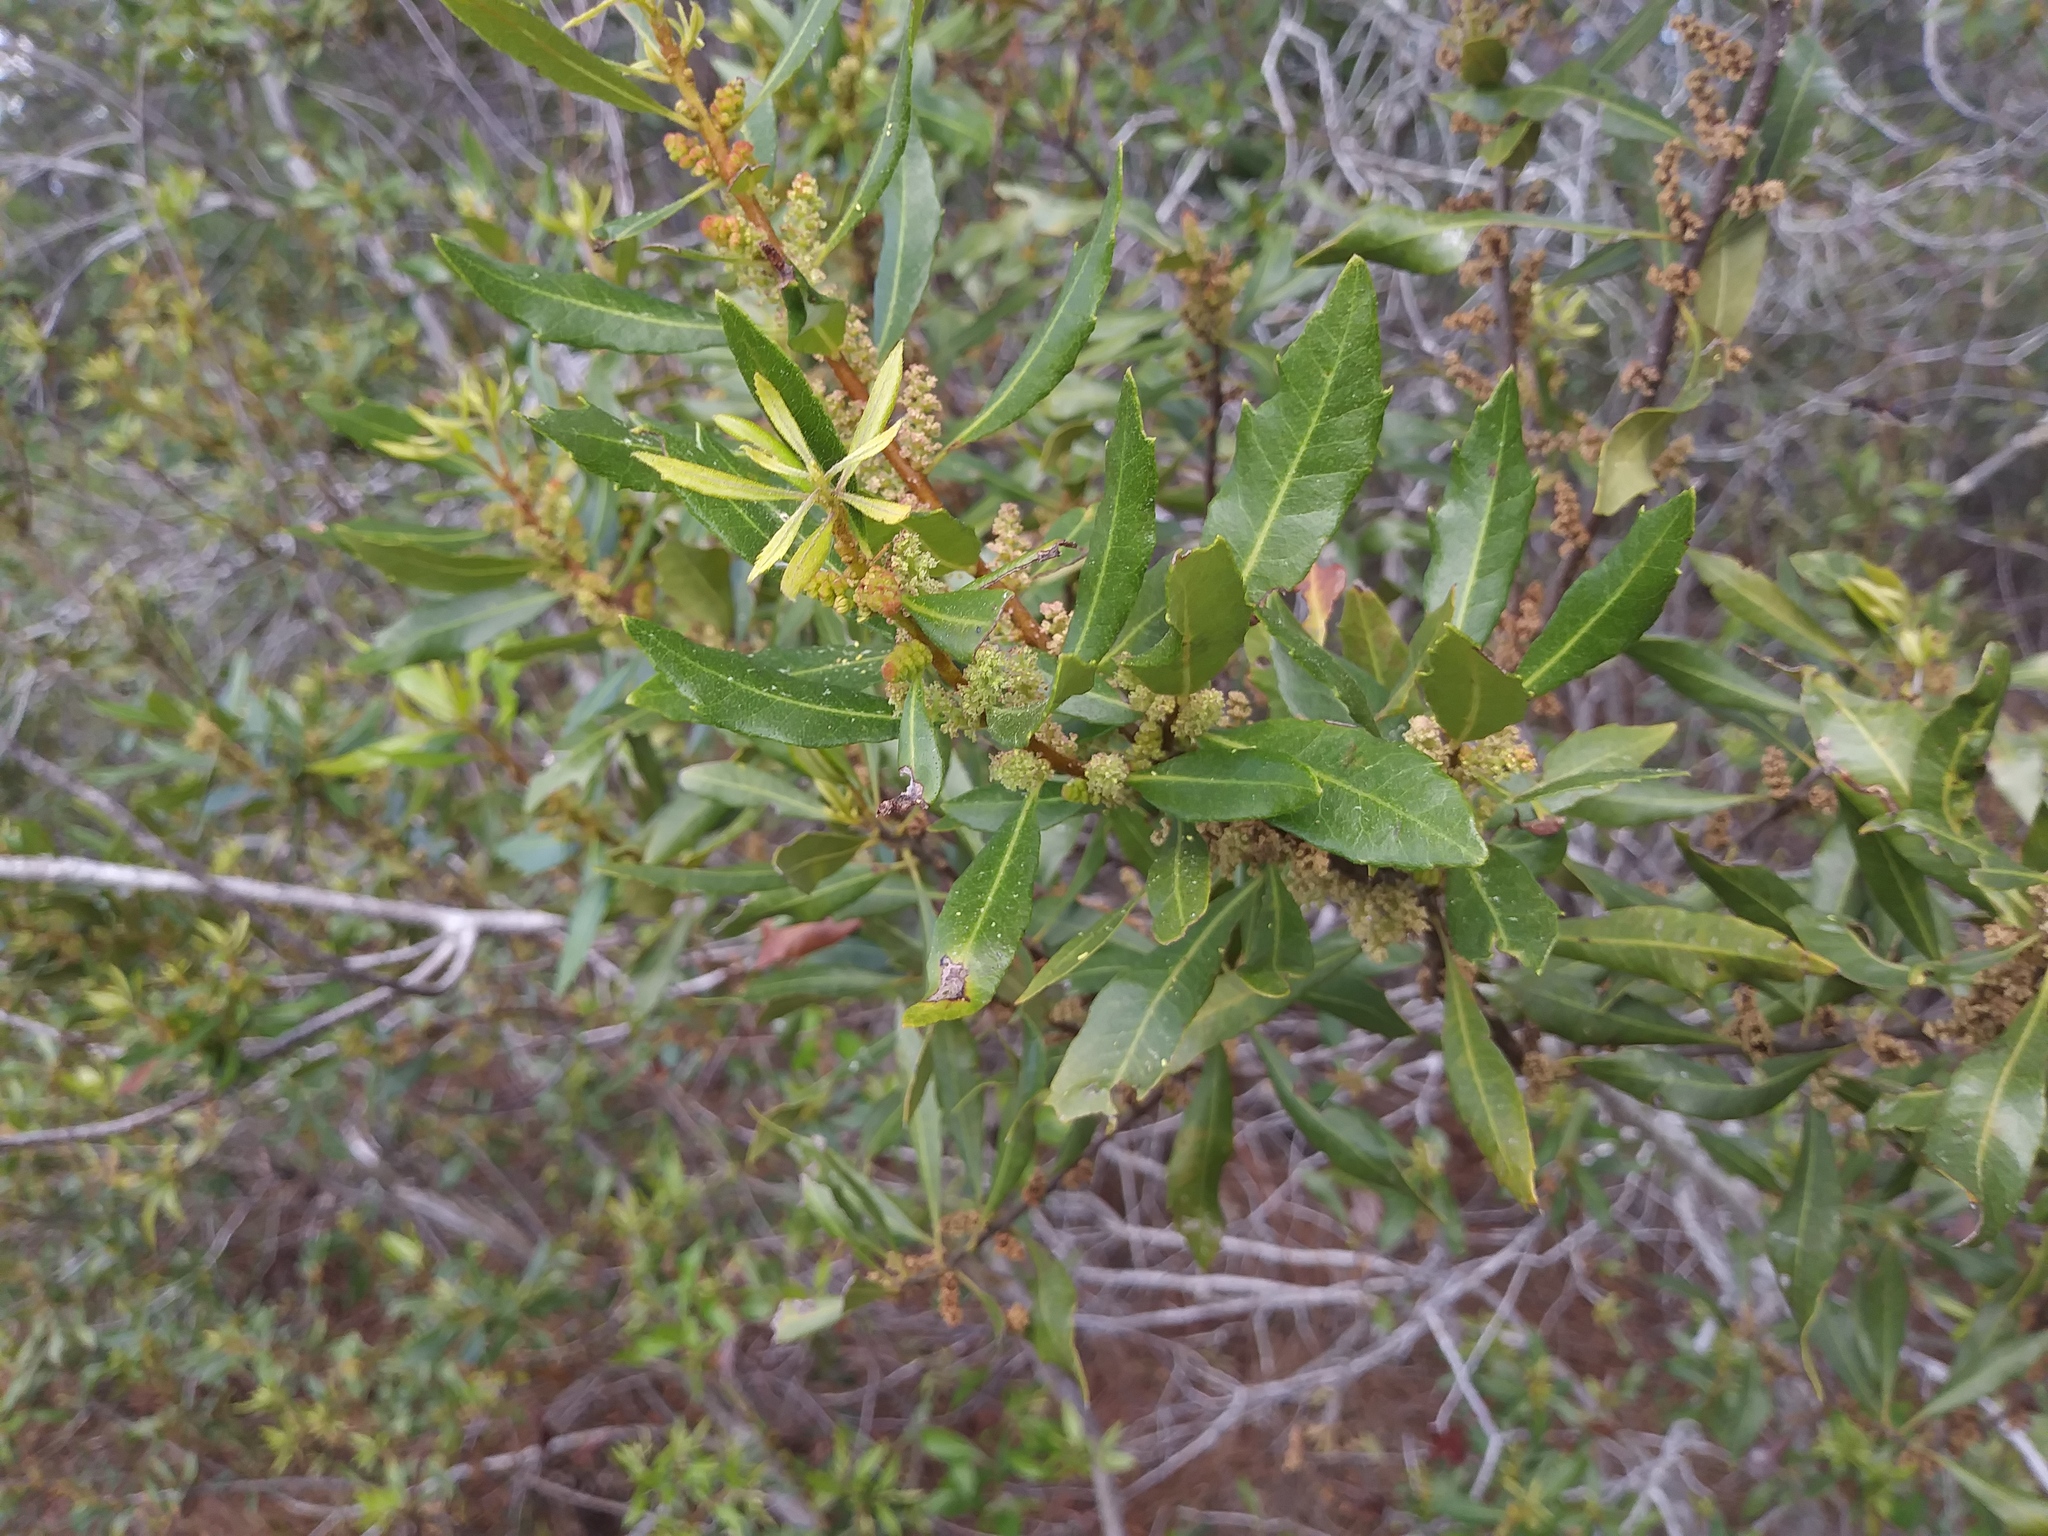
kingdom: Plantae
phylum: Tracheophyta
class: Magnoliopsida
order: Fagales
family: Myricaceae
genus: Morella
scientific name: Morella cerifera
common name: Wax myrtle
